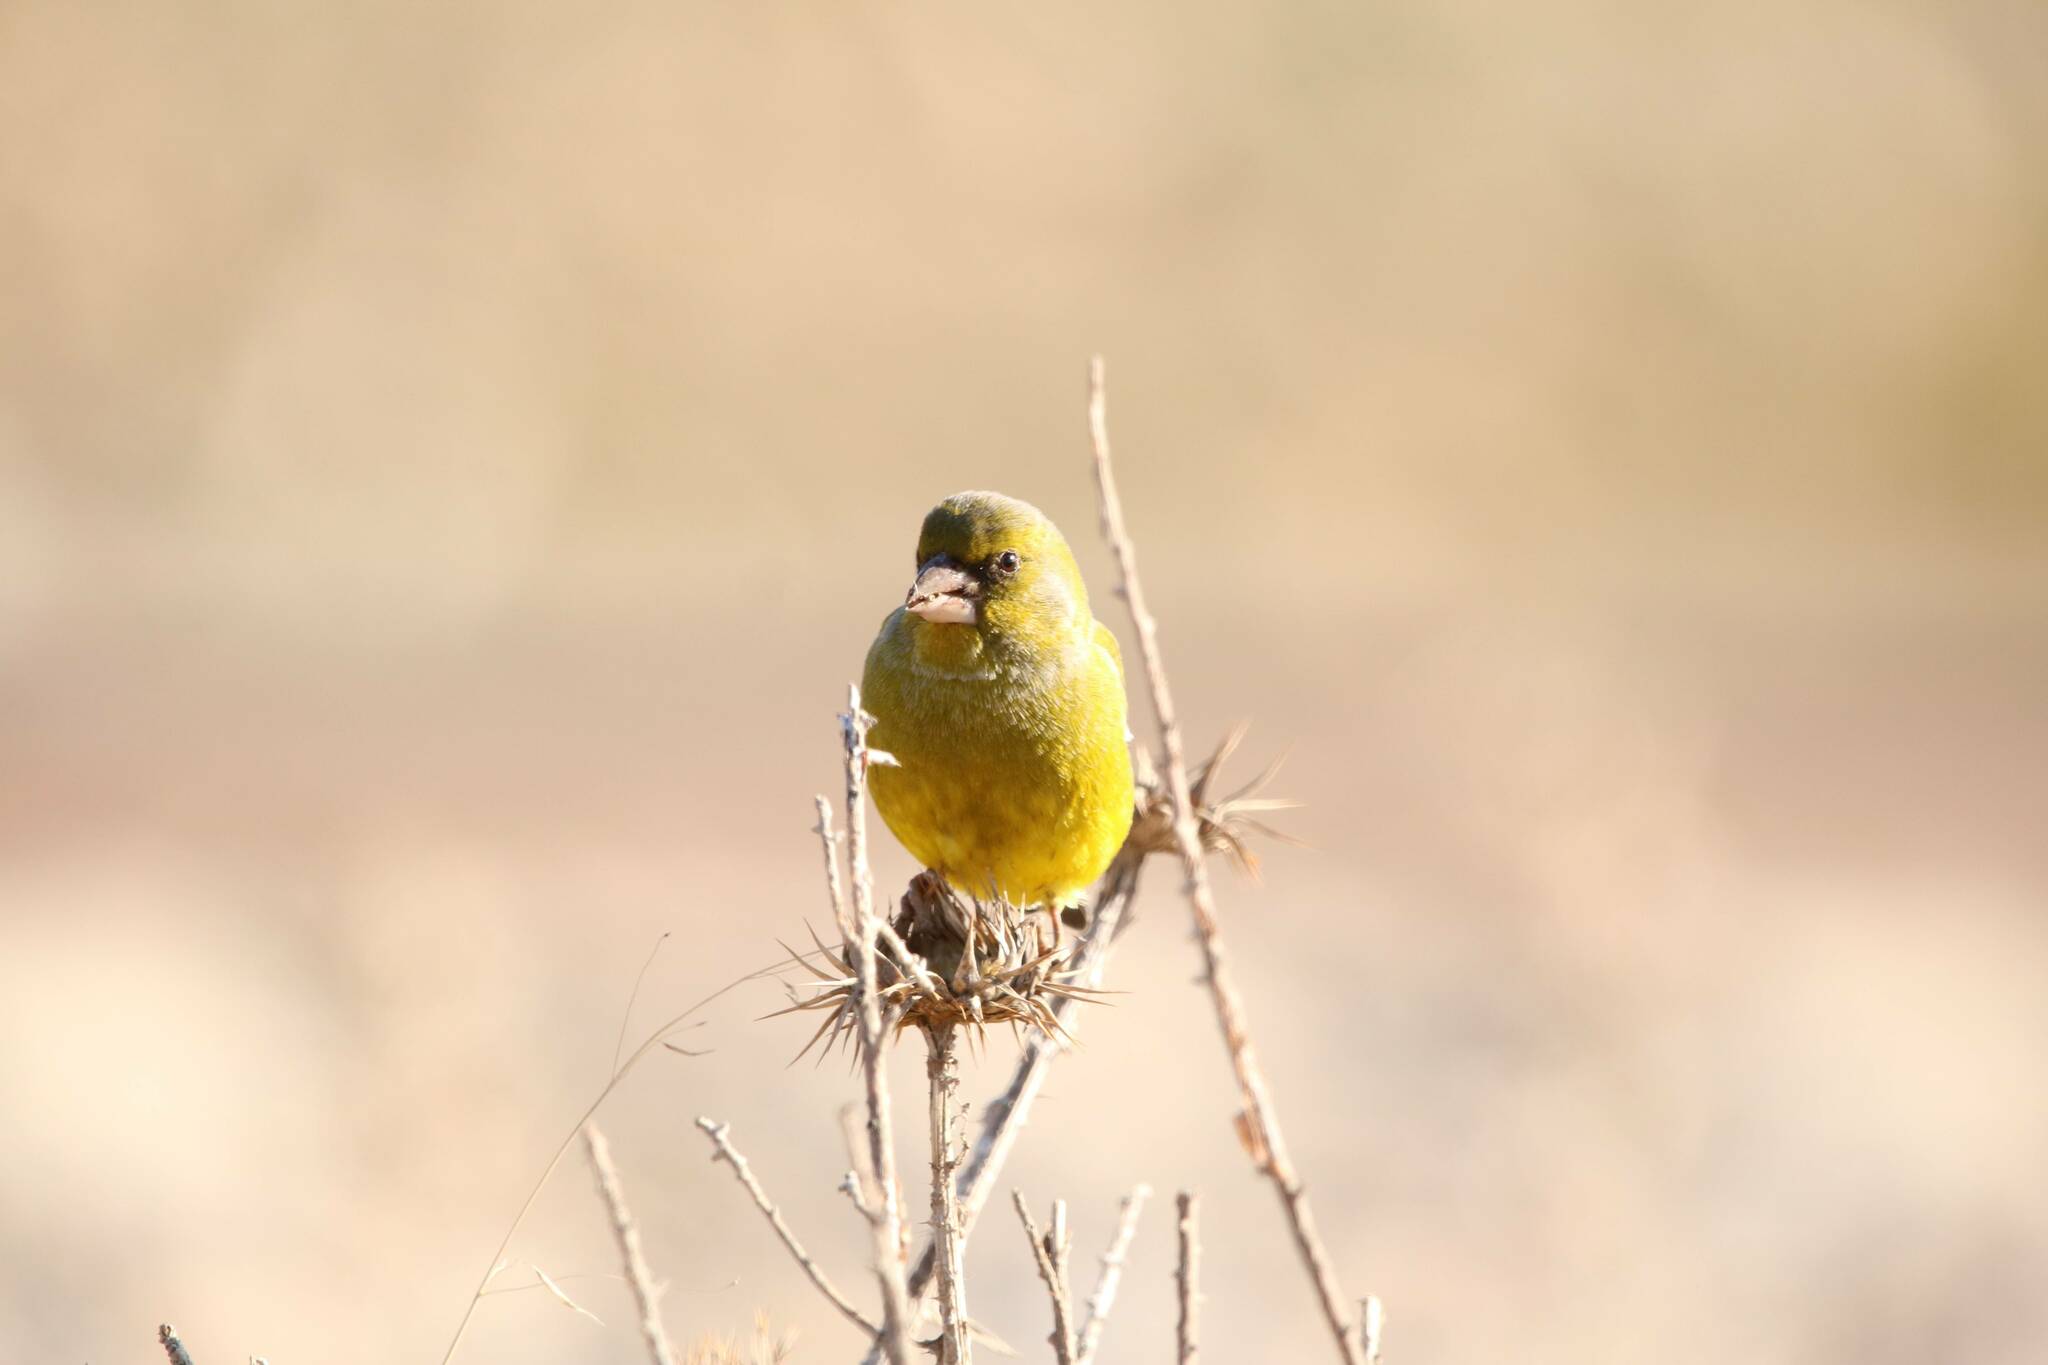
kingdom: Plantae
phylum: Tracheophyta
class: Liliopsida
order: Poales
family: Poaceae
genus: Chloris
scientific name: Chloris chloris
